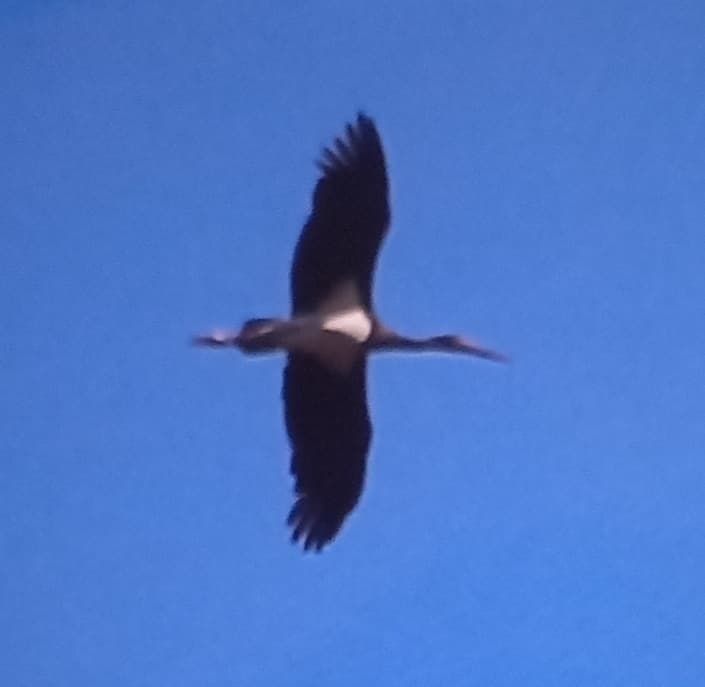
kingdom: Animalia
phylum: Chordata
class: Aves
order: Ciconiiformes
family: Ciconiidae
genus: Ciconia
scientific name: Ciconia nigra
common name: Black stork
